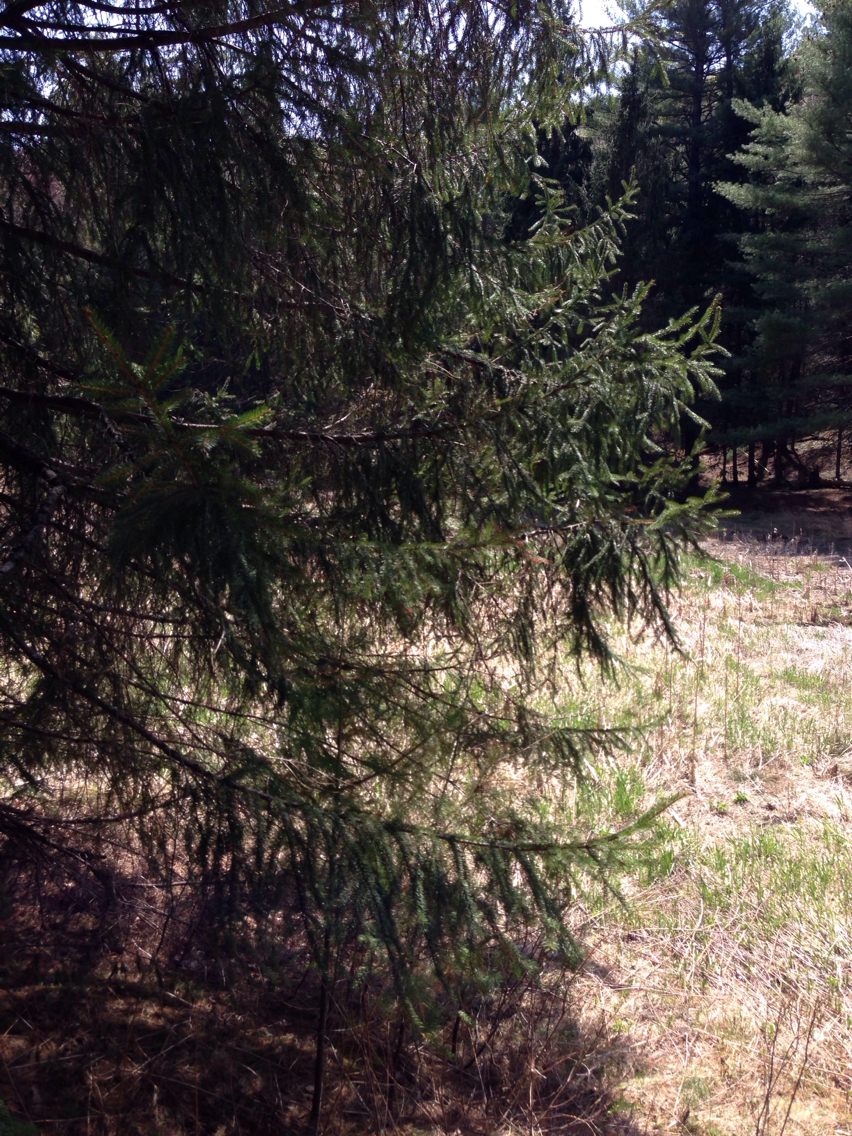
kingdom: Plantae
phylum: Tracheophyta
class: Pinopsida
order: Pinales
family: Pinaceae
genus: Picea
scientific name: Picea abies
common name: Norway spruce
